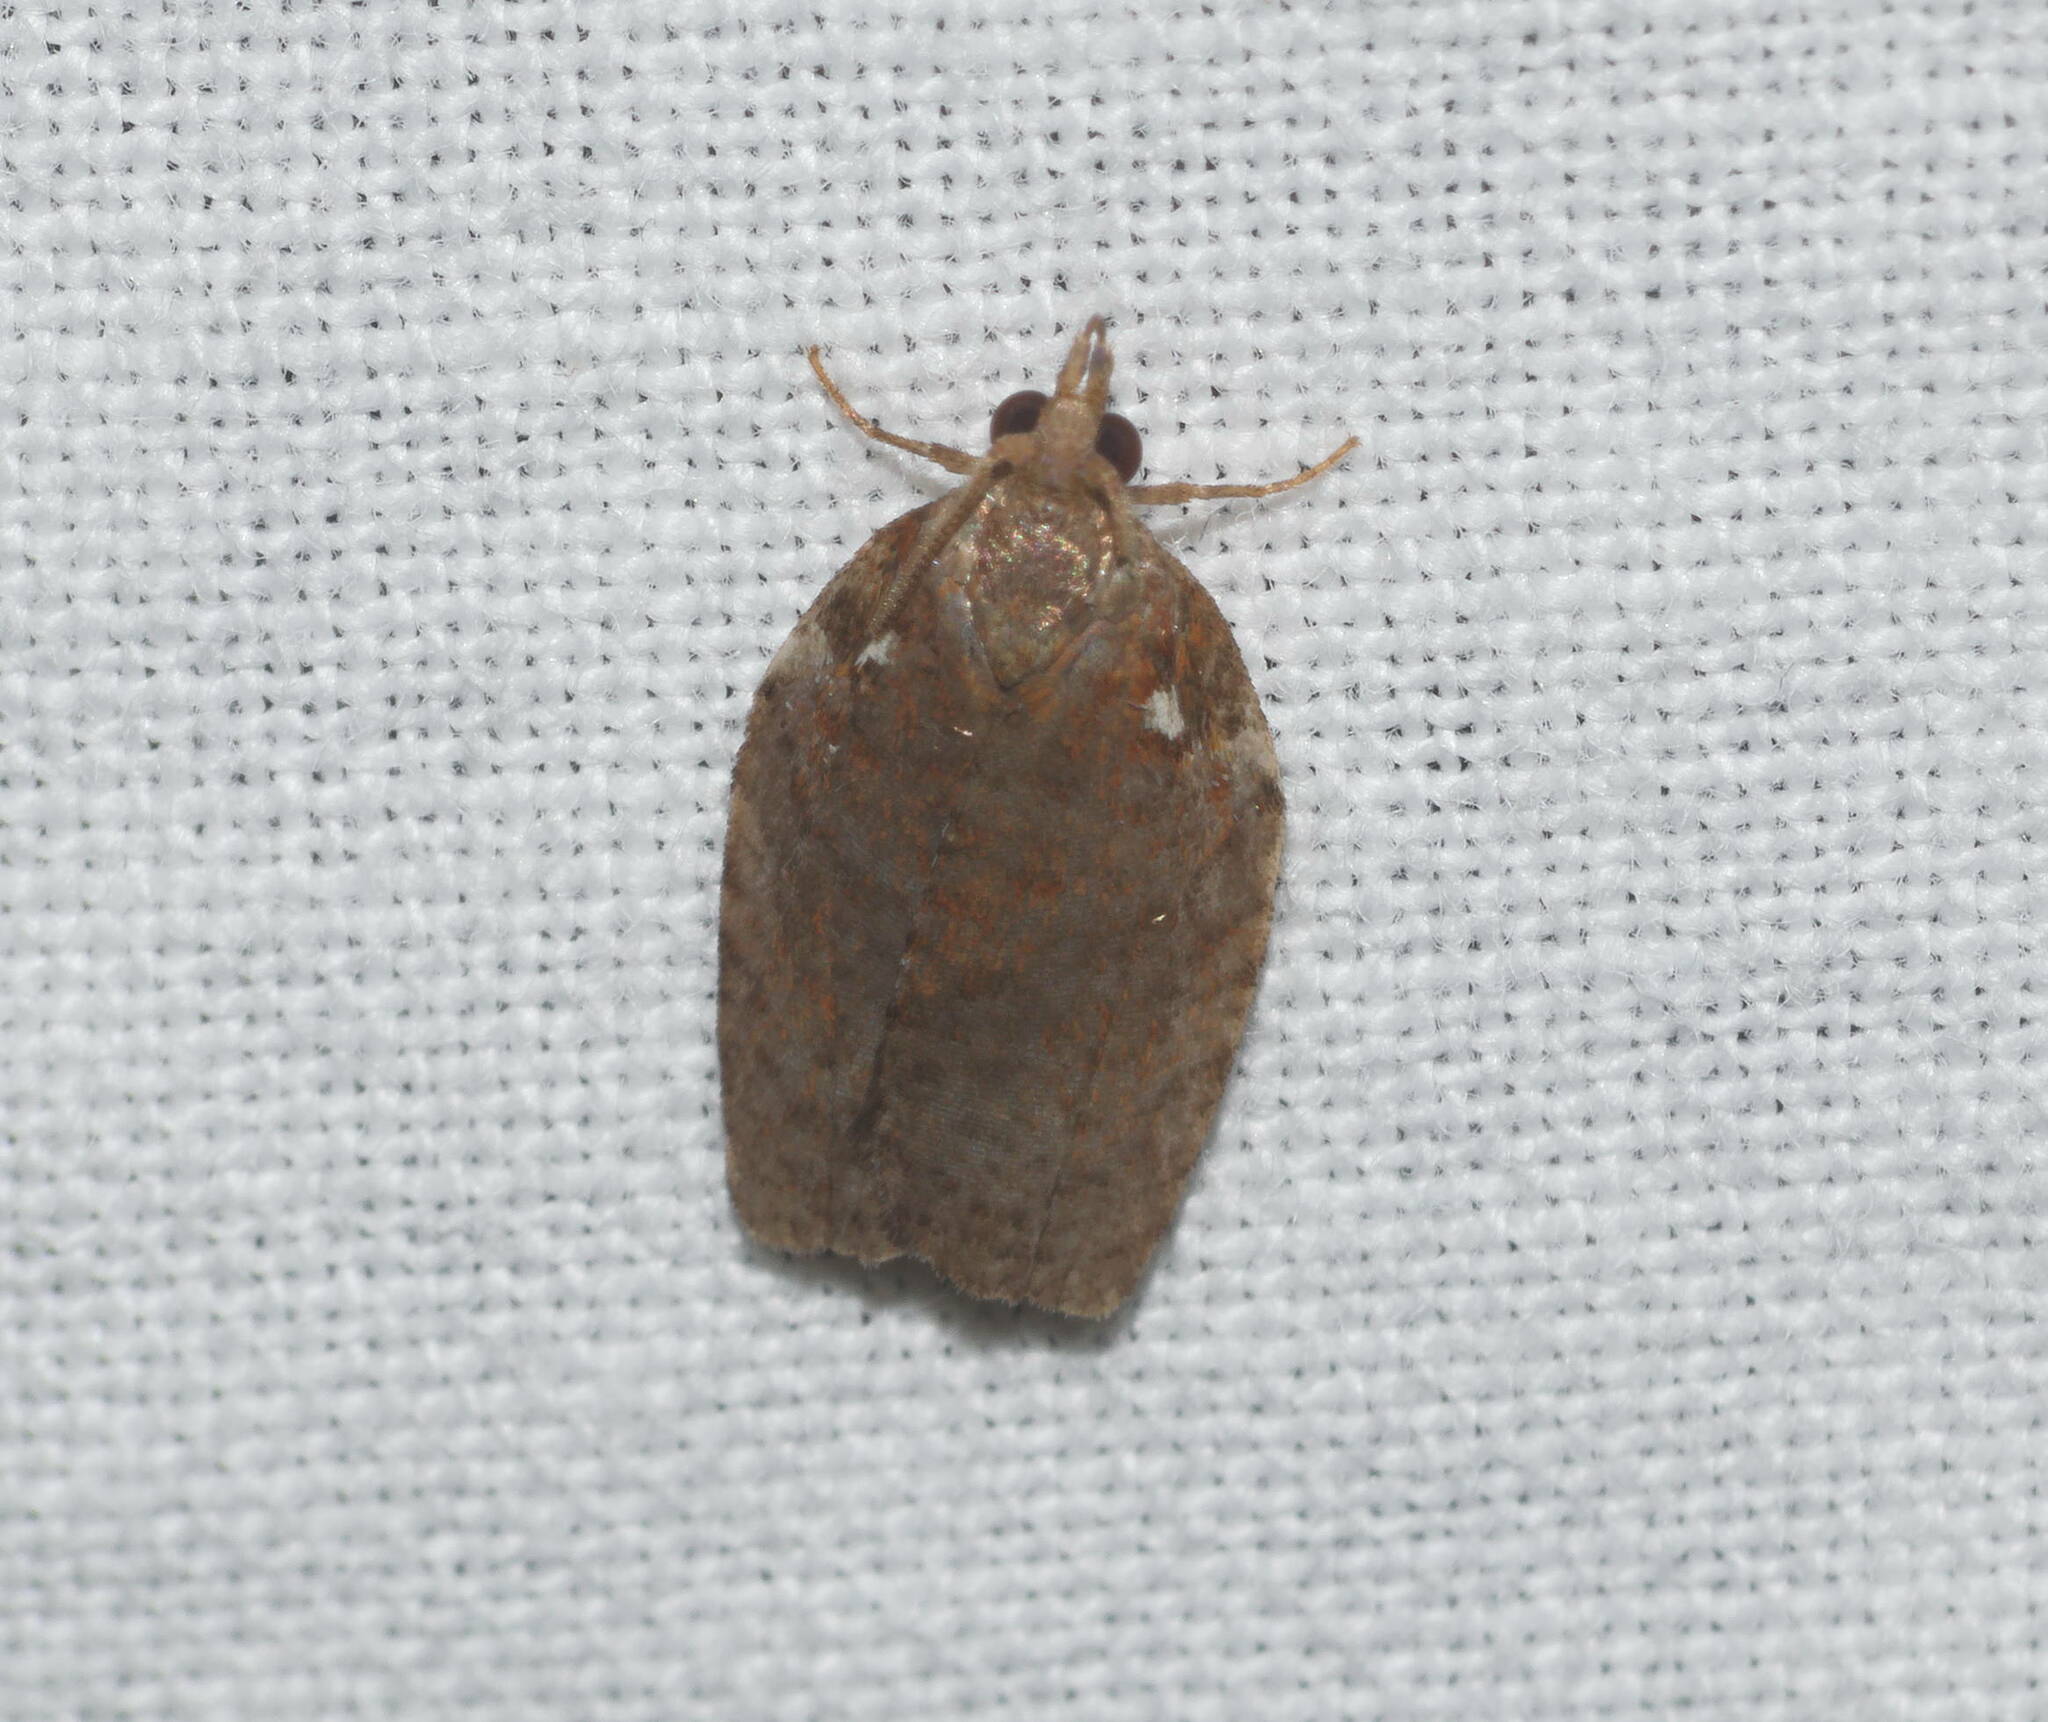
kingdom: Animalia
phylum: Arthropoda
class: Insecta
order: Lepidoptera
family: Tortricidae
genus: Spheterista
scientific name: Spheterista pleonectes
